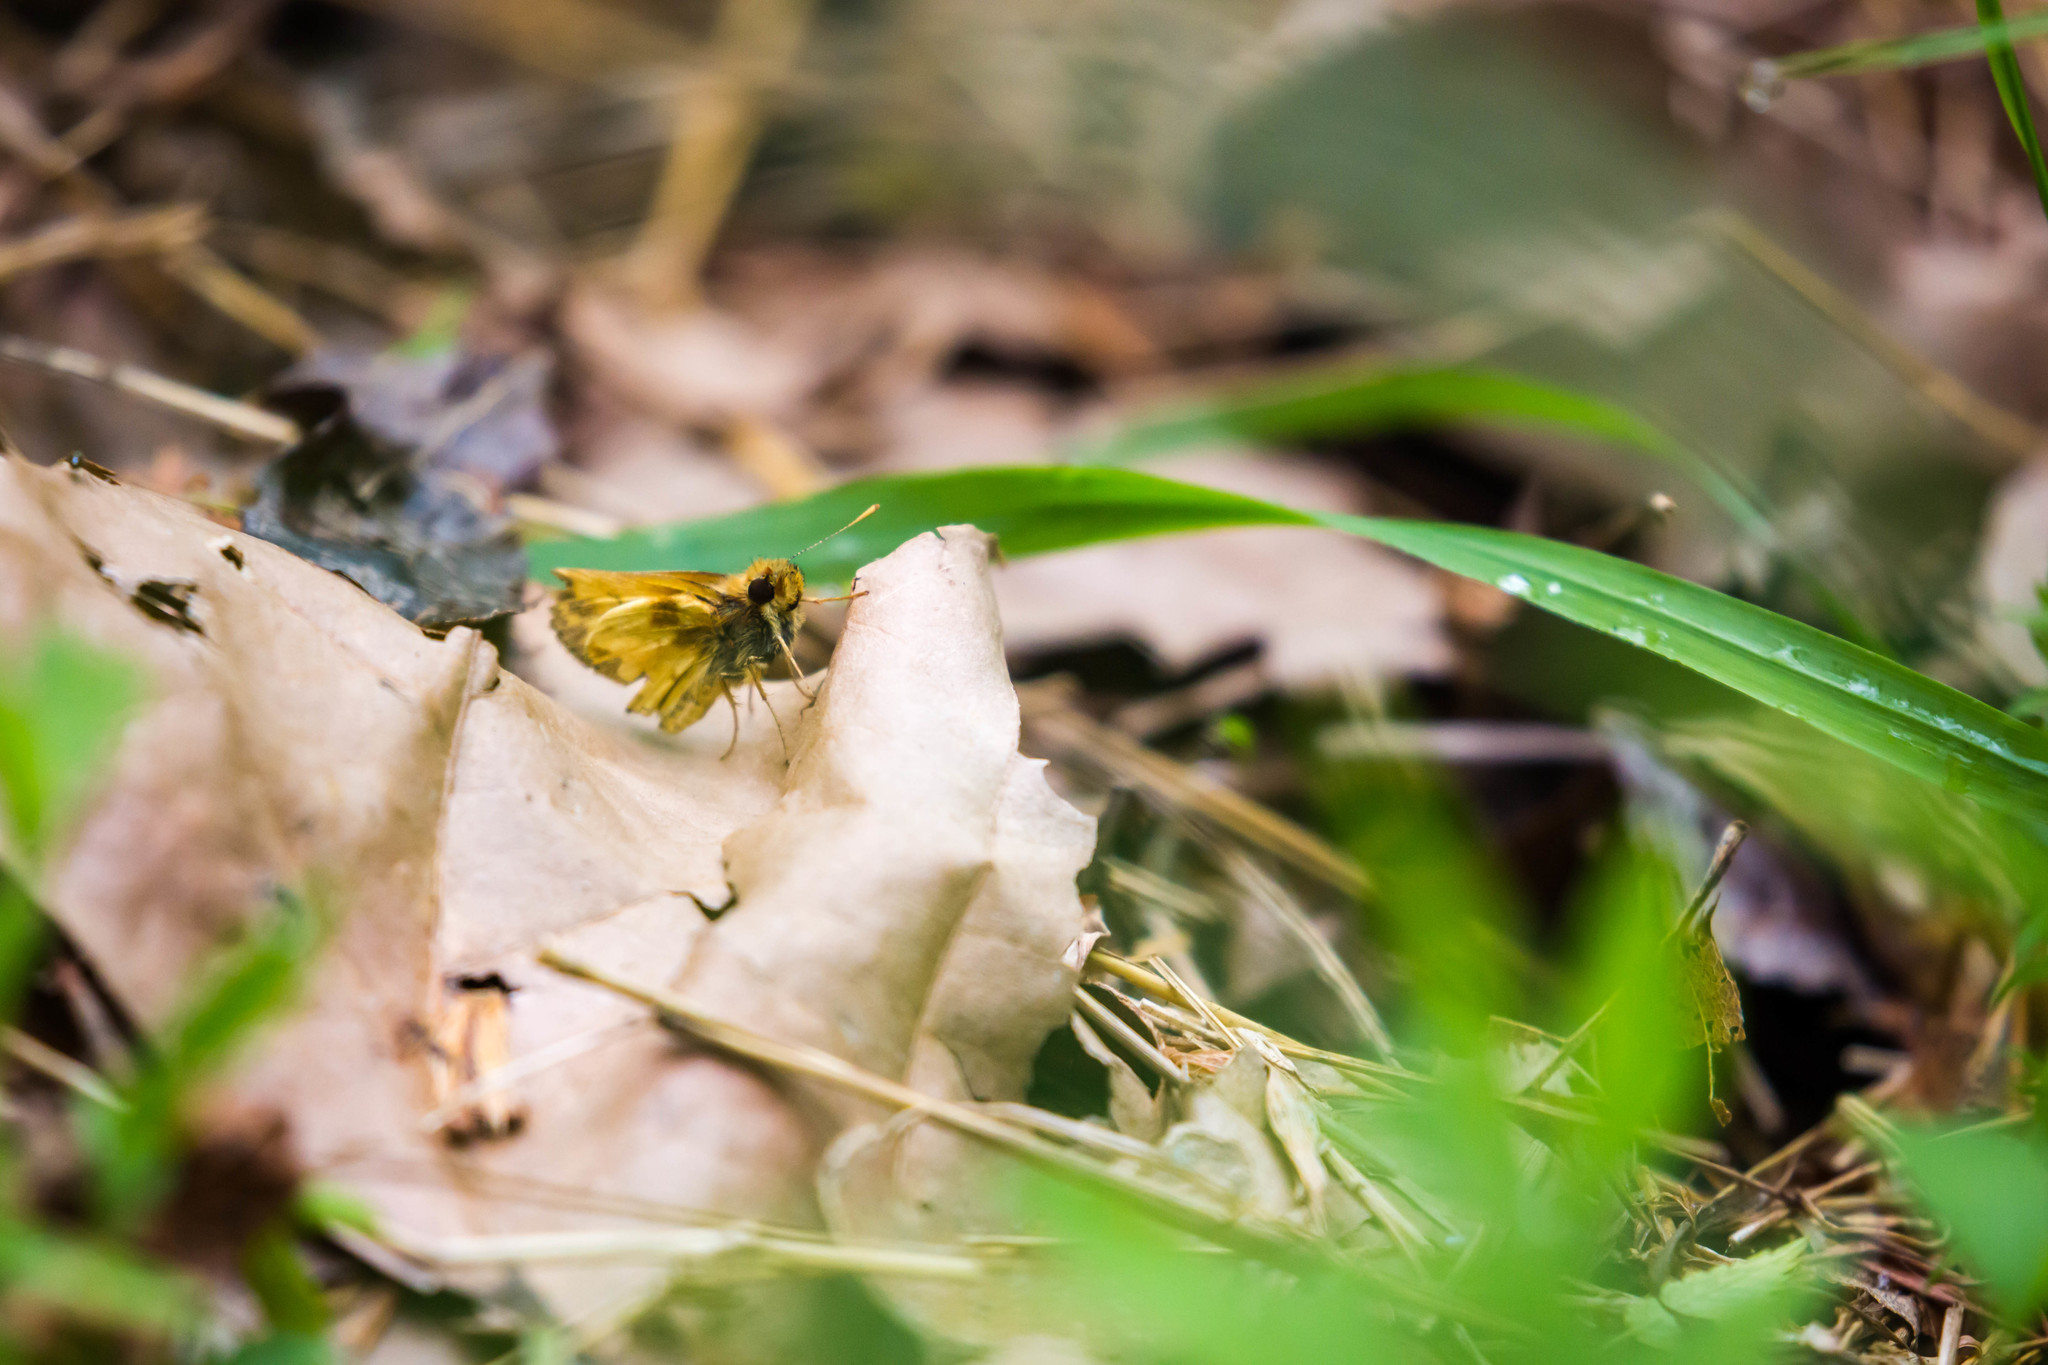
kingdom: Animalia
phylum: Arthropoda
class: Insecta
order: Lepidoptera
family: Hesperiidae
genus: Lon
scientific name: Lon zabulon
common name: Zabulon skipper
